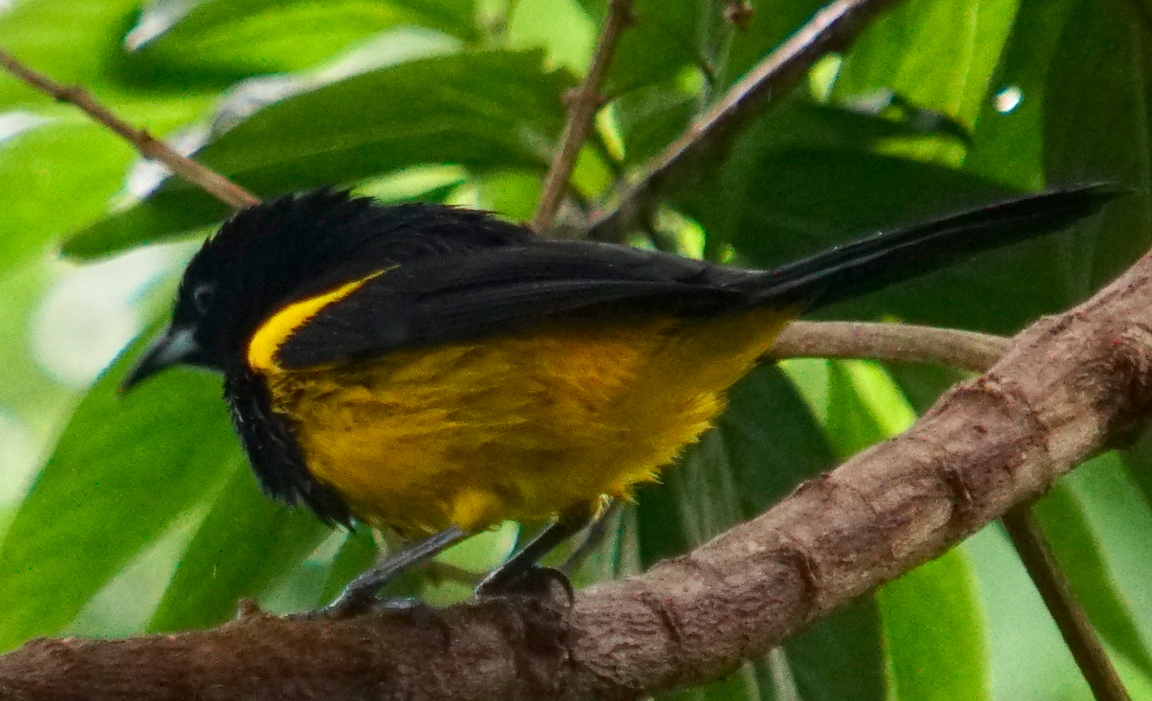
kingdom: Animalia
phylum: Chordata
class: Aves
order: Passeriformes
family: Icteridae
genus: Icterus
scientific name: Icterus prosthemelas
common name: Black-cowled oriole
